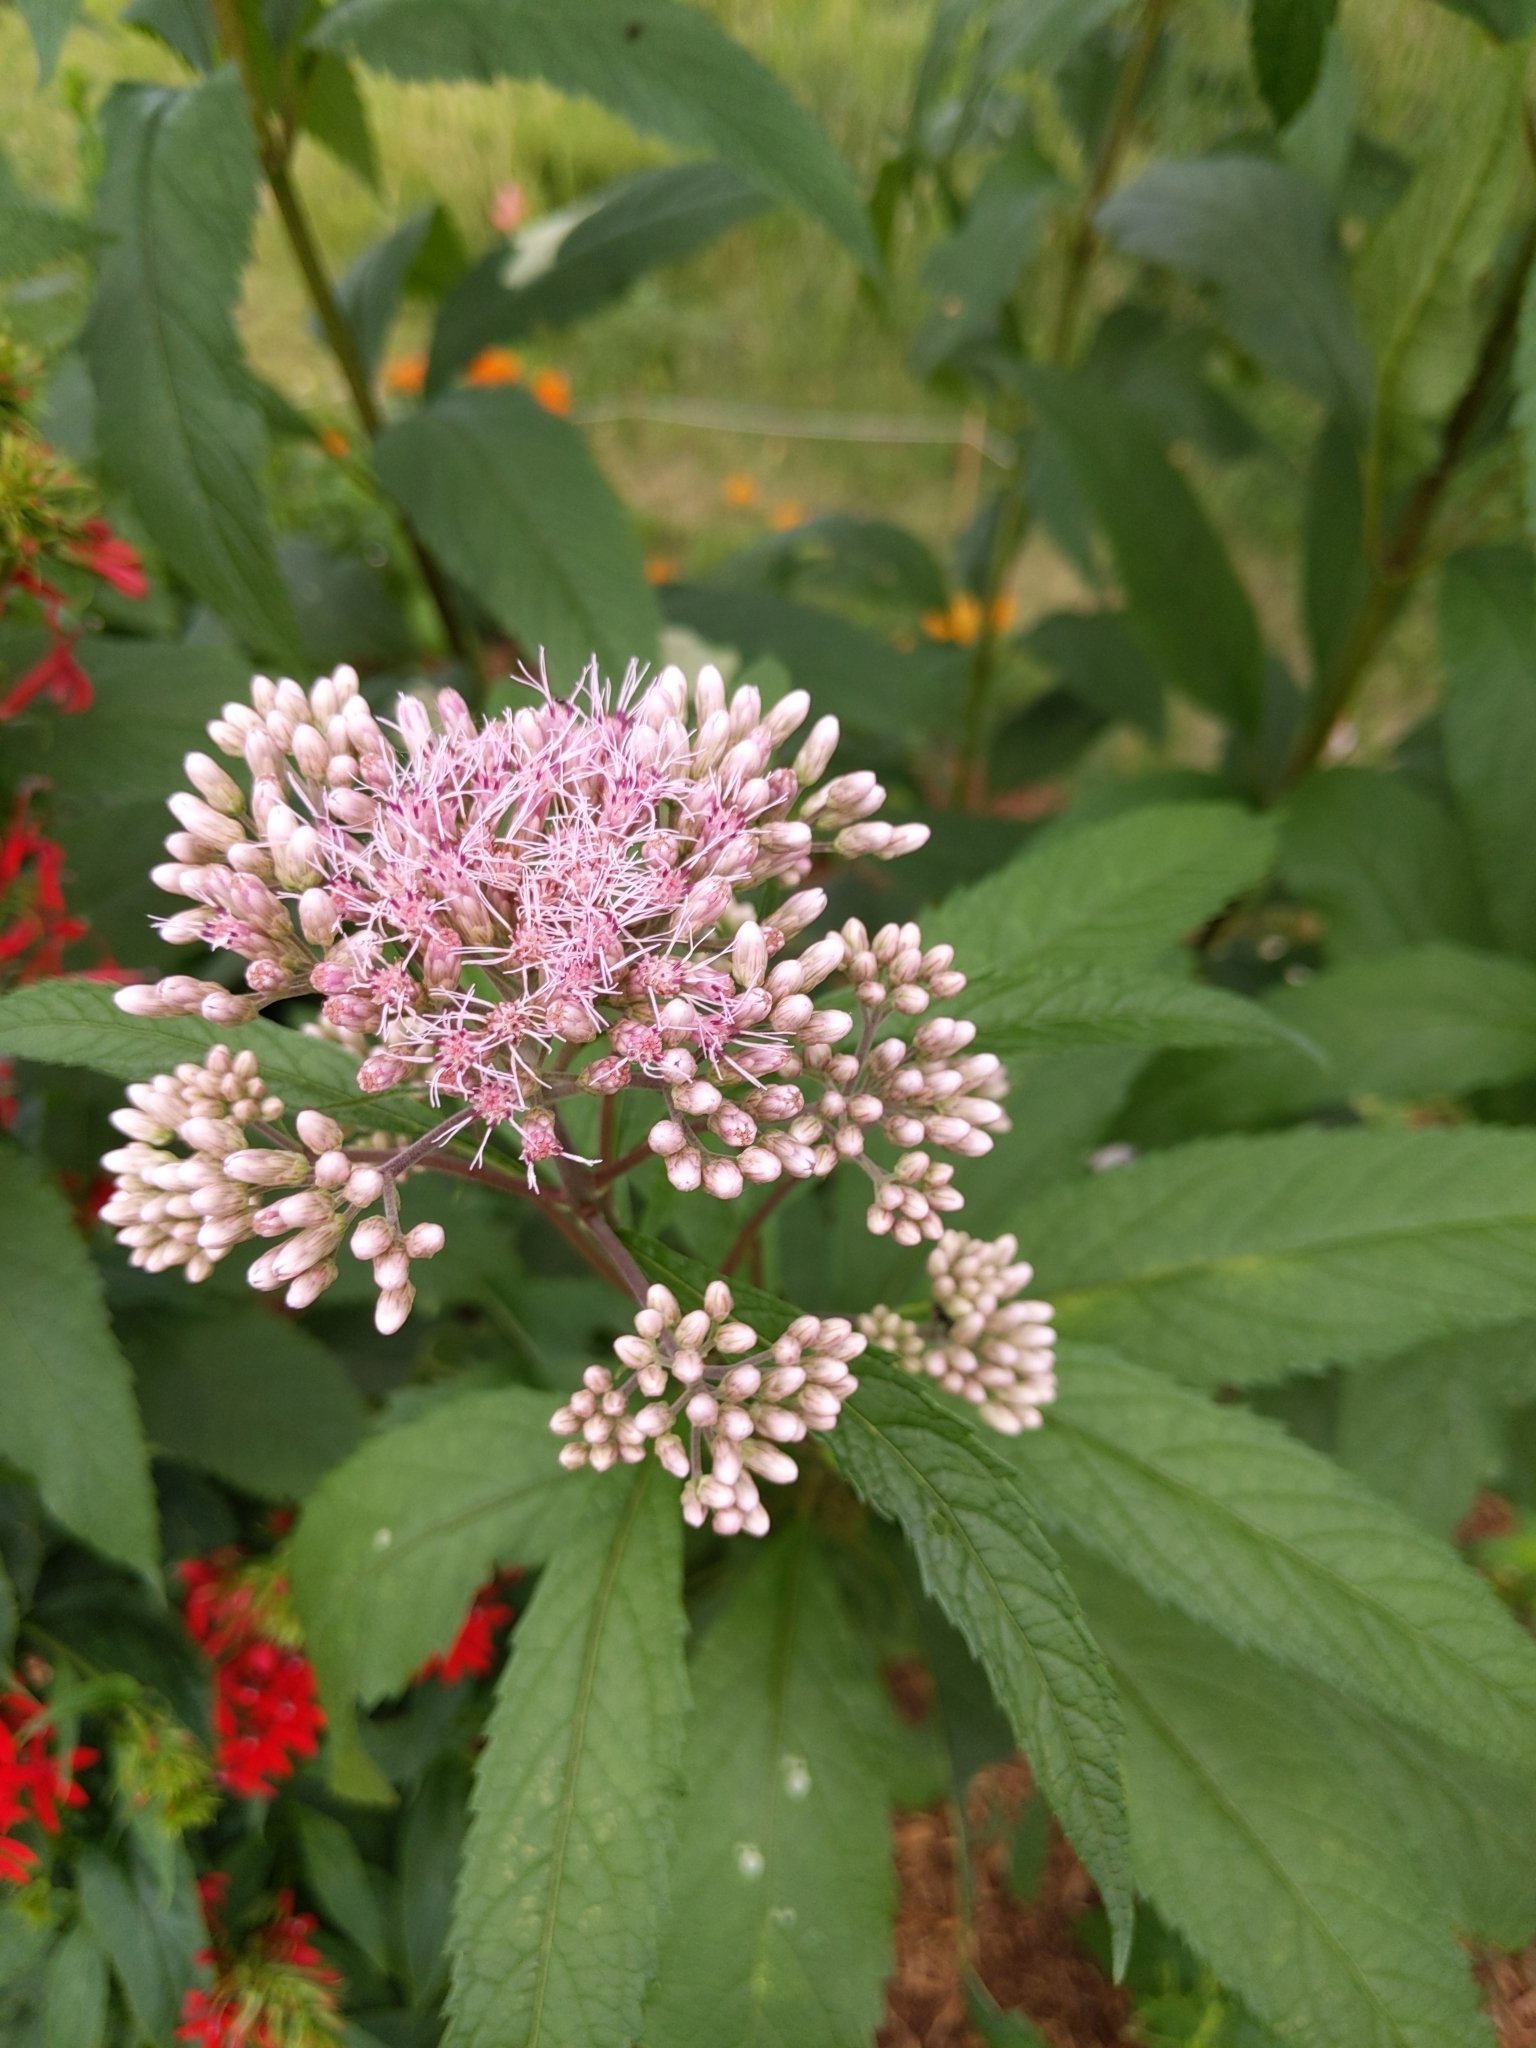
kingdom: Plantae
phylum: Tracheophyta
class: Magnoliopsida
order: Asterales
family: Asteraceae
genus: Eutrochium
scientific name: Eutrochium maculatum
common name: Spotted joe pye weed
